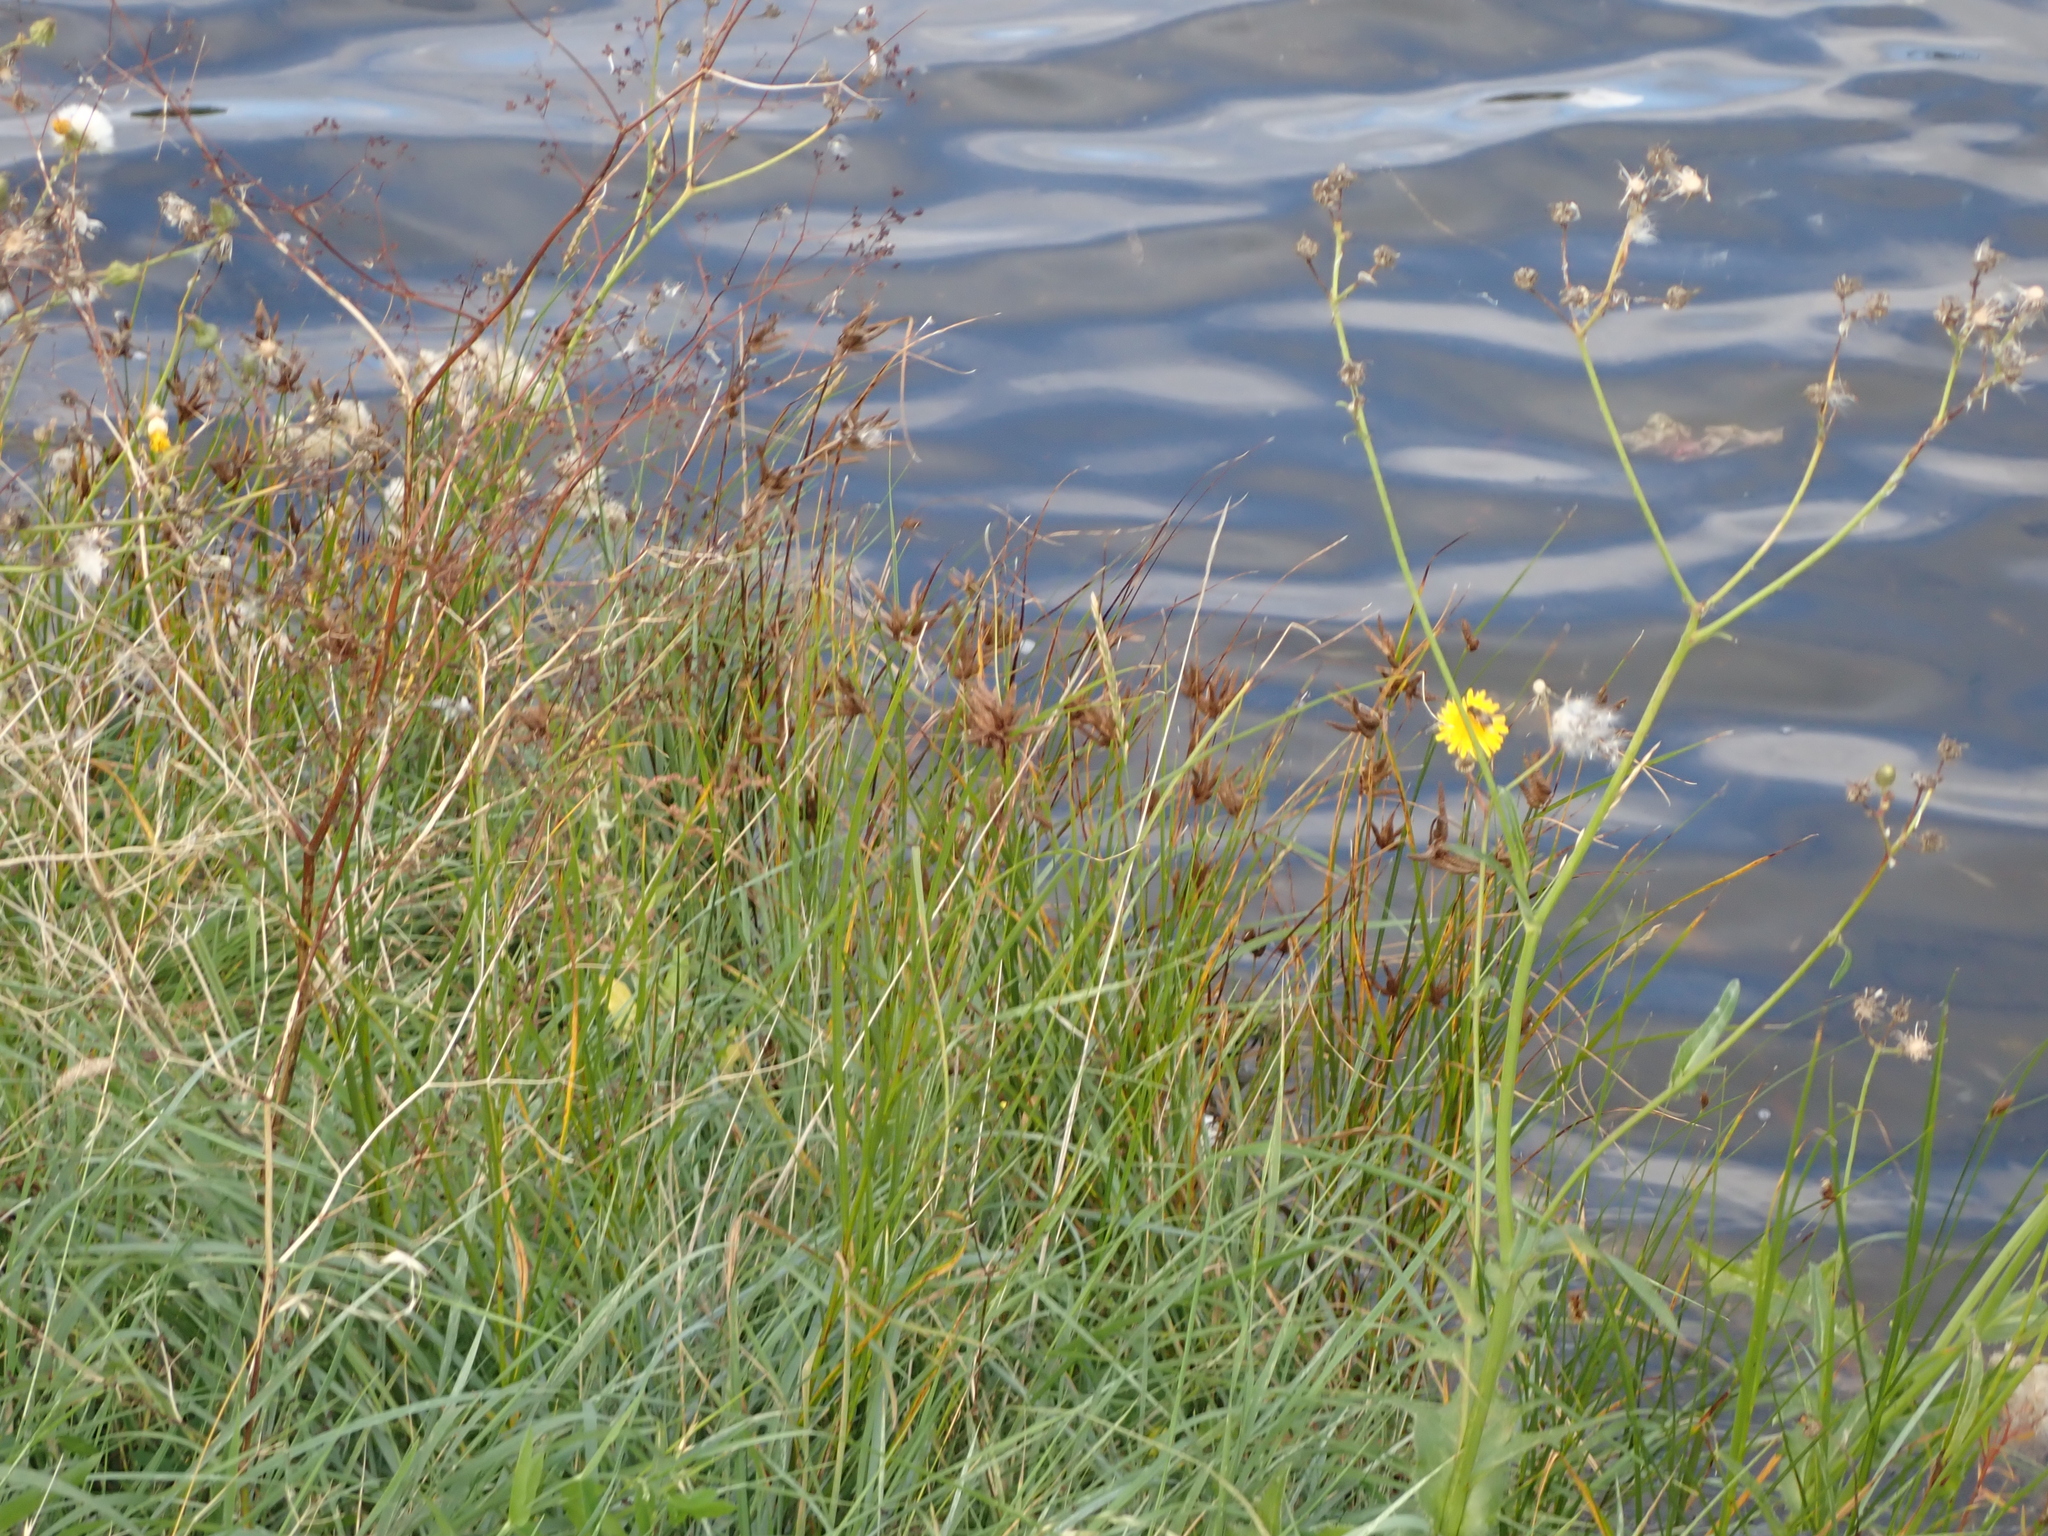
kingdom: Plantae
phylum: Tracheophyta
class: Liliopsida
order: Poales
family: Cyperaceae
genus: Bolboschoenus
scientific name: Bolboschoenus maritimus
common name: Sea club-rush
